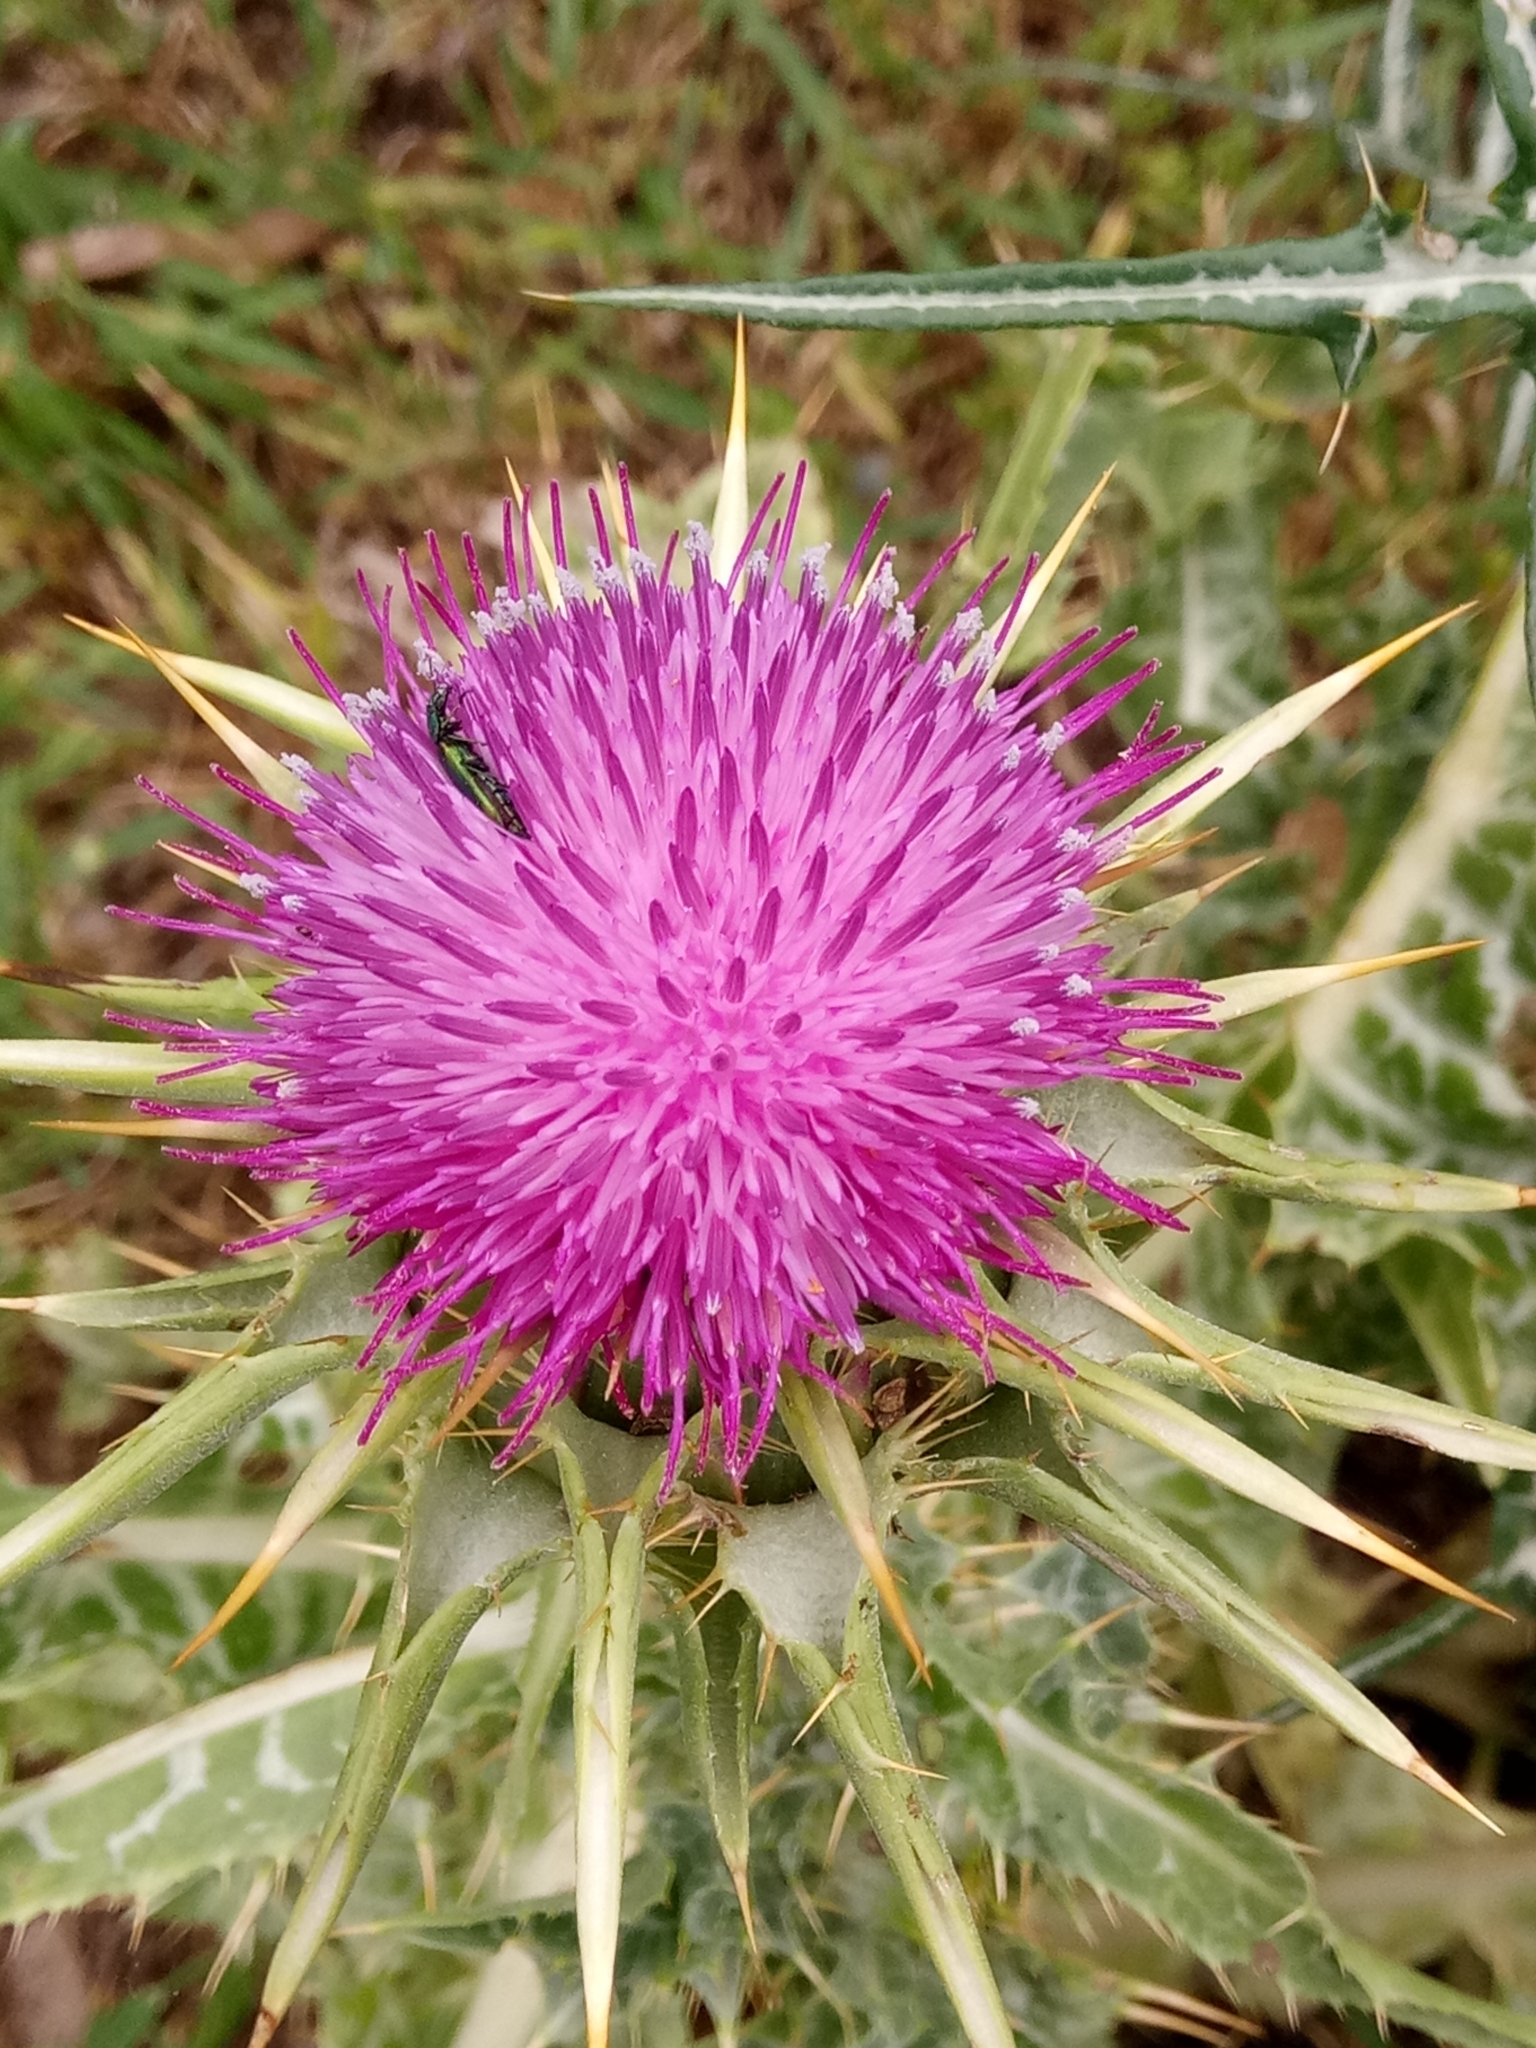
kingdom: Plantae
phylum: Tracheophyta
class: Magnoliopsida
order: Asterales
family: Asteraceae
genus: Galactites
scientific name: Galactites tomentosa
